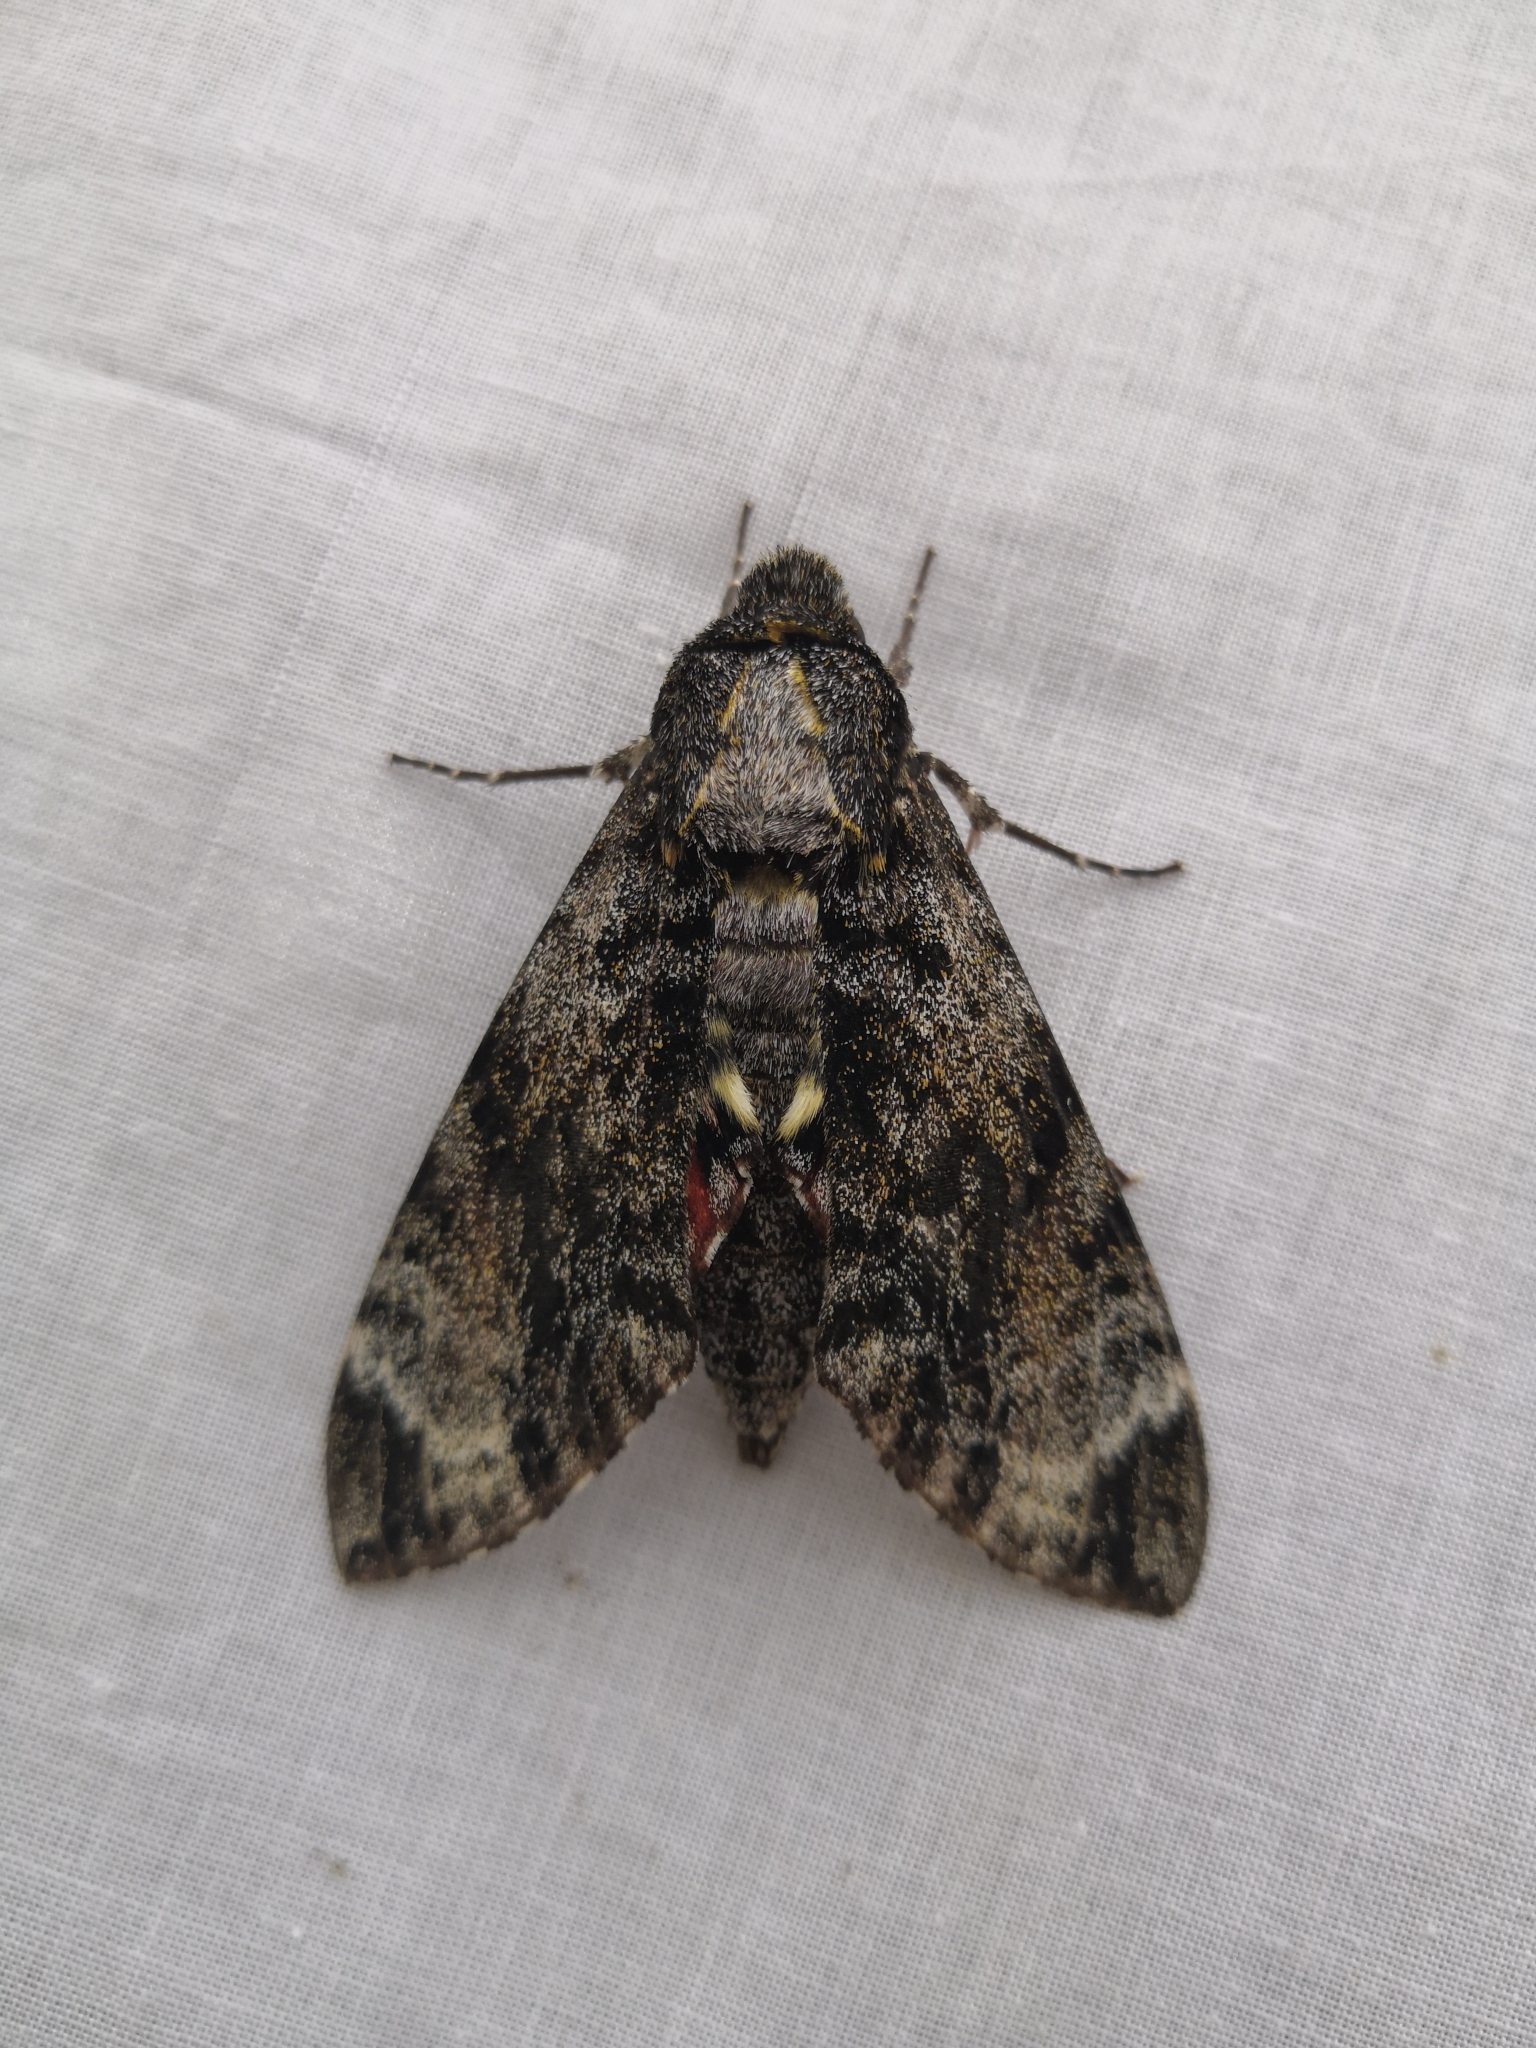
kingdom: Animalia
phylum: Arthropoda
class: Insecta
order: Lepidoptera
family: Sphingidae
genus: Tetrachroa
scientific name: Tetrachroa edwardsi
